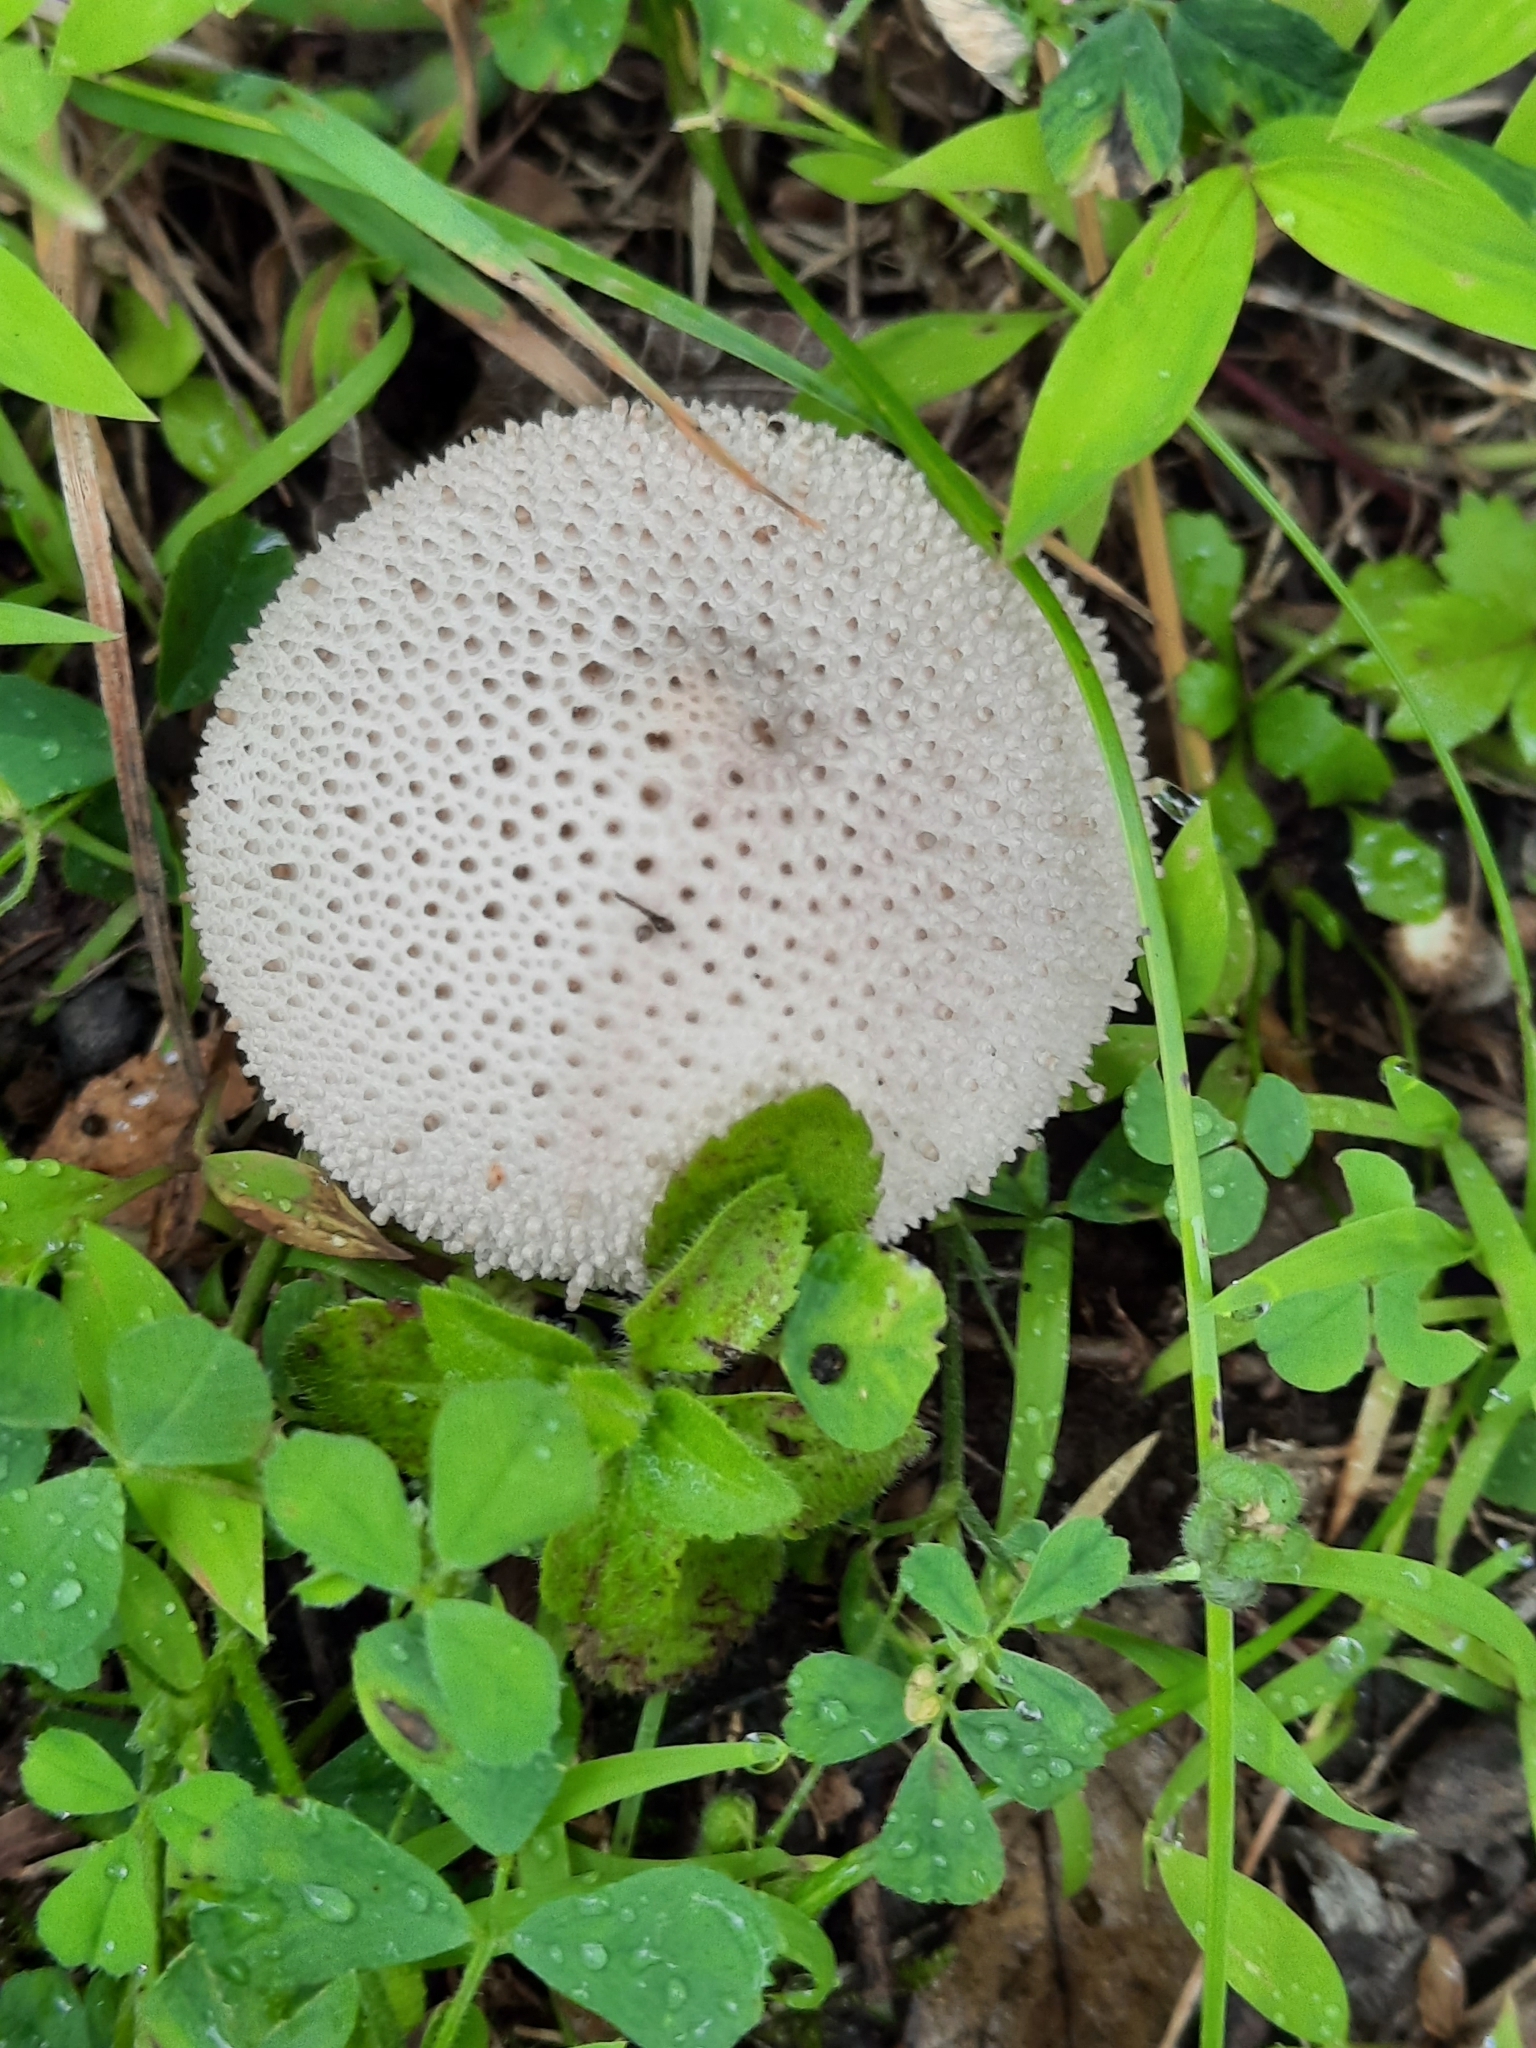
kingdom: Fungi
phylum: Basidiomycota
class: Agaricomycetes
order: Agaricales
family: Lycoperdaceae
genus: Lycoperdon
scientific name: Lycoperdon perlatum
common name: Common puffball
